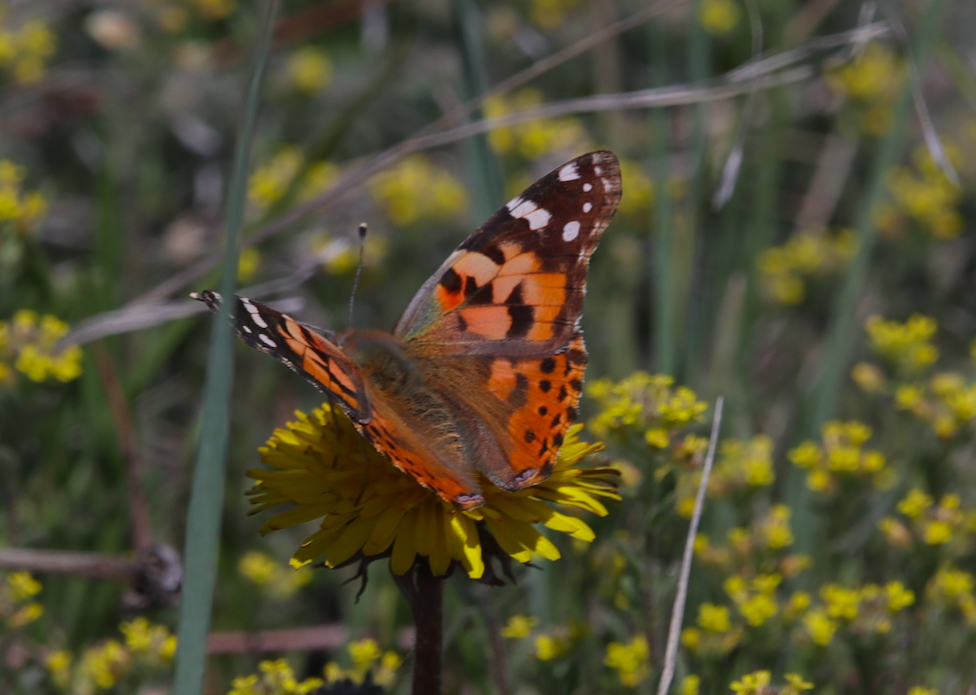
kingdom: Animalia
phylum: Arthropoda
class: Insecta
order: Lepidoptera
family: Nymphalidae
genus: Vanessa
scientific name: Vanessa cardui
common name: Painted lady
